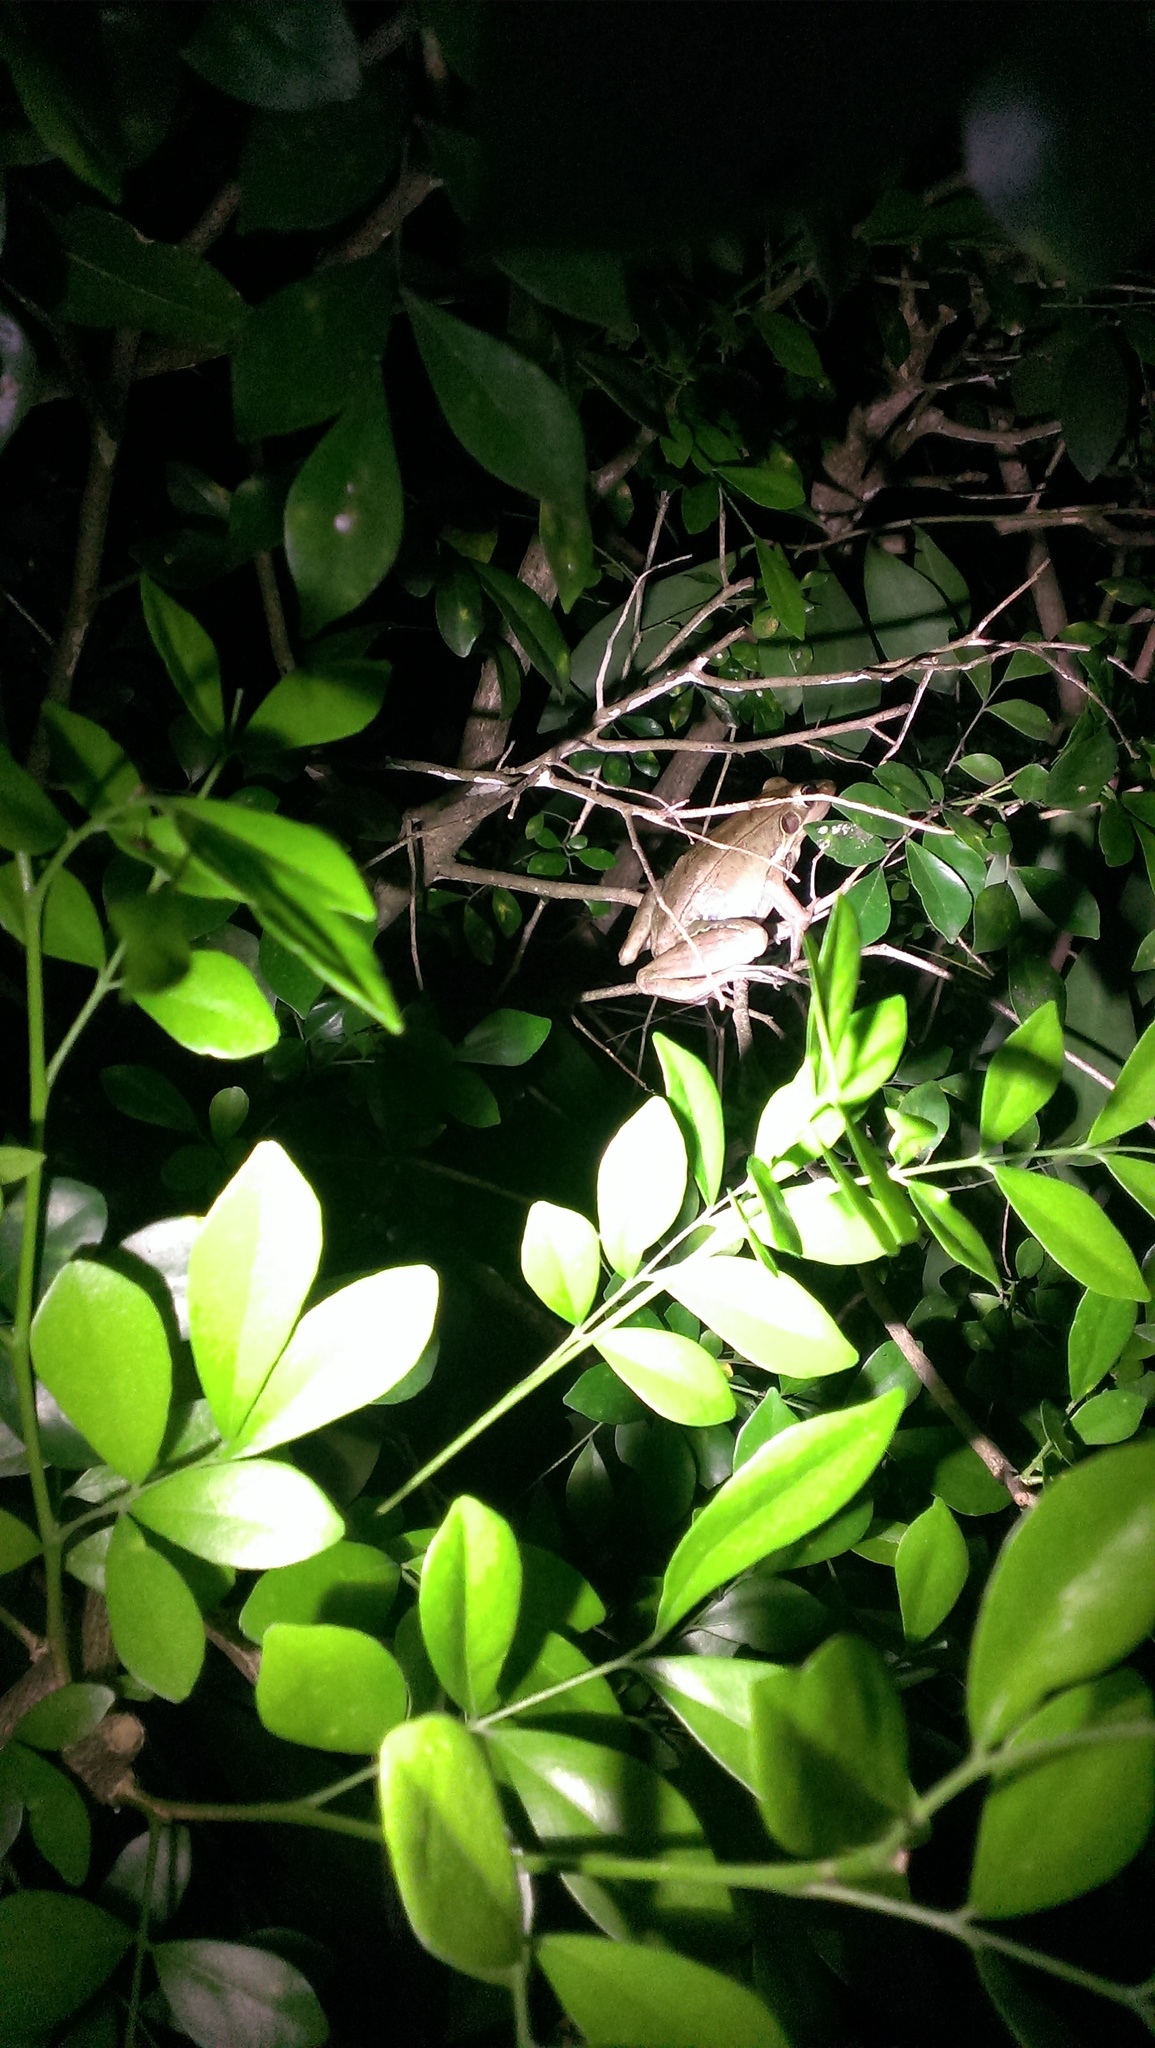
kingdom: Animalia
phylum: Chordata
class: Amphibia
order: Anura
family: Ranidae
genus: Sylvirana
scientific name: Sylvirana guentheri
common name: Guenther's amoy frog
